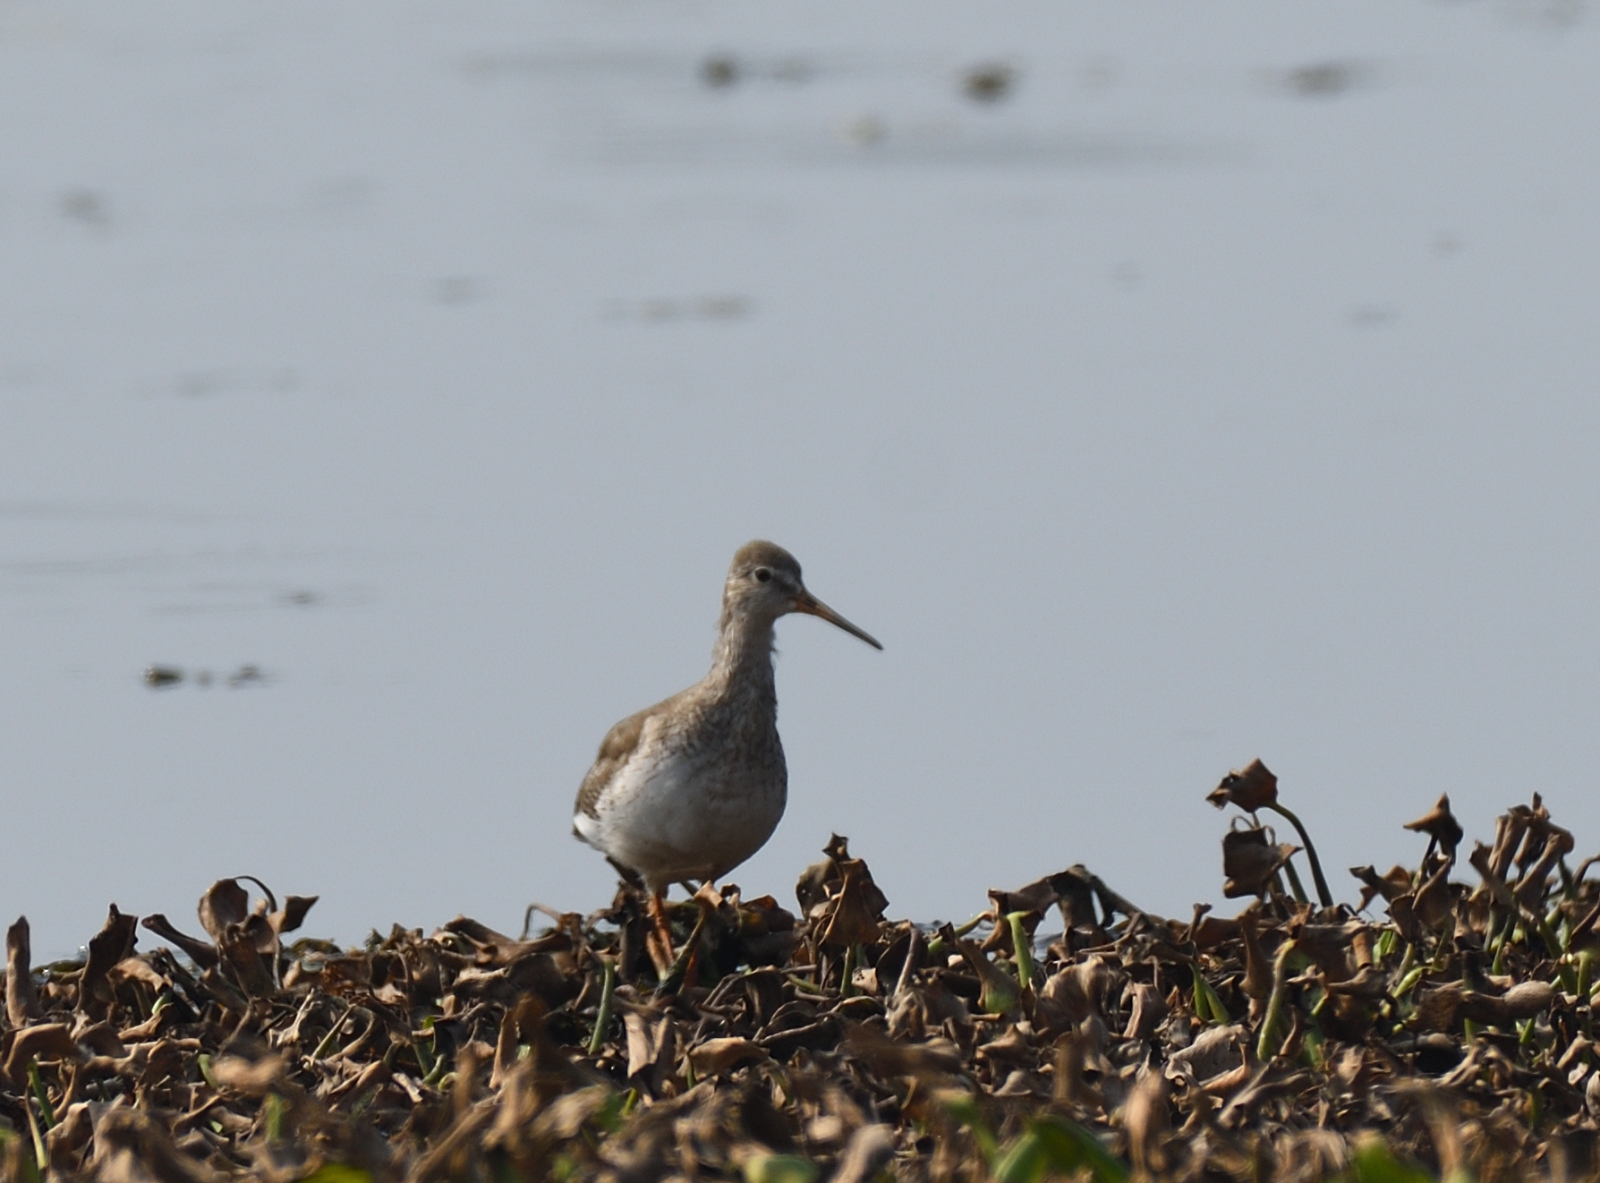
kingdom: Animalia
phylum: Chordata
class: Aves
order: Charadriiformes
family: Scolopacidae
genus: Tringa
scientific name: Tringa totanus
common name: Common redshank
